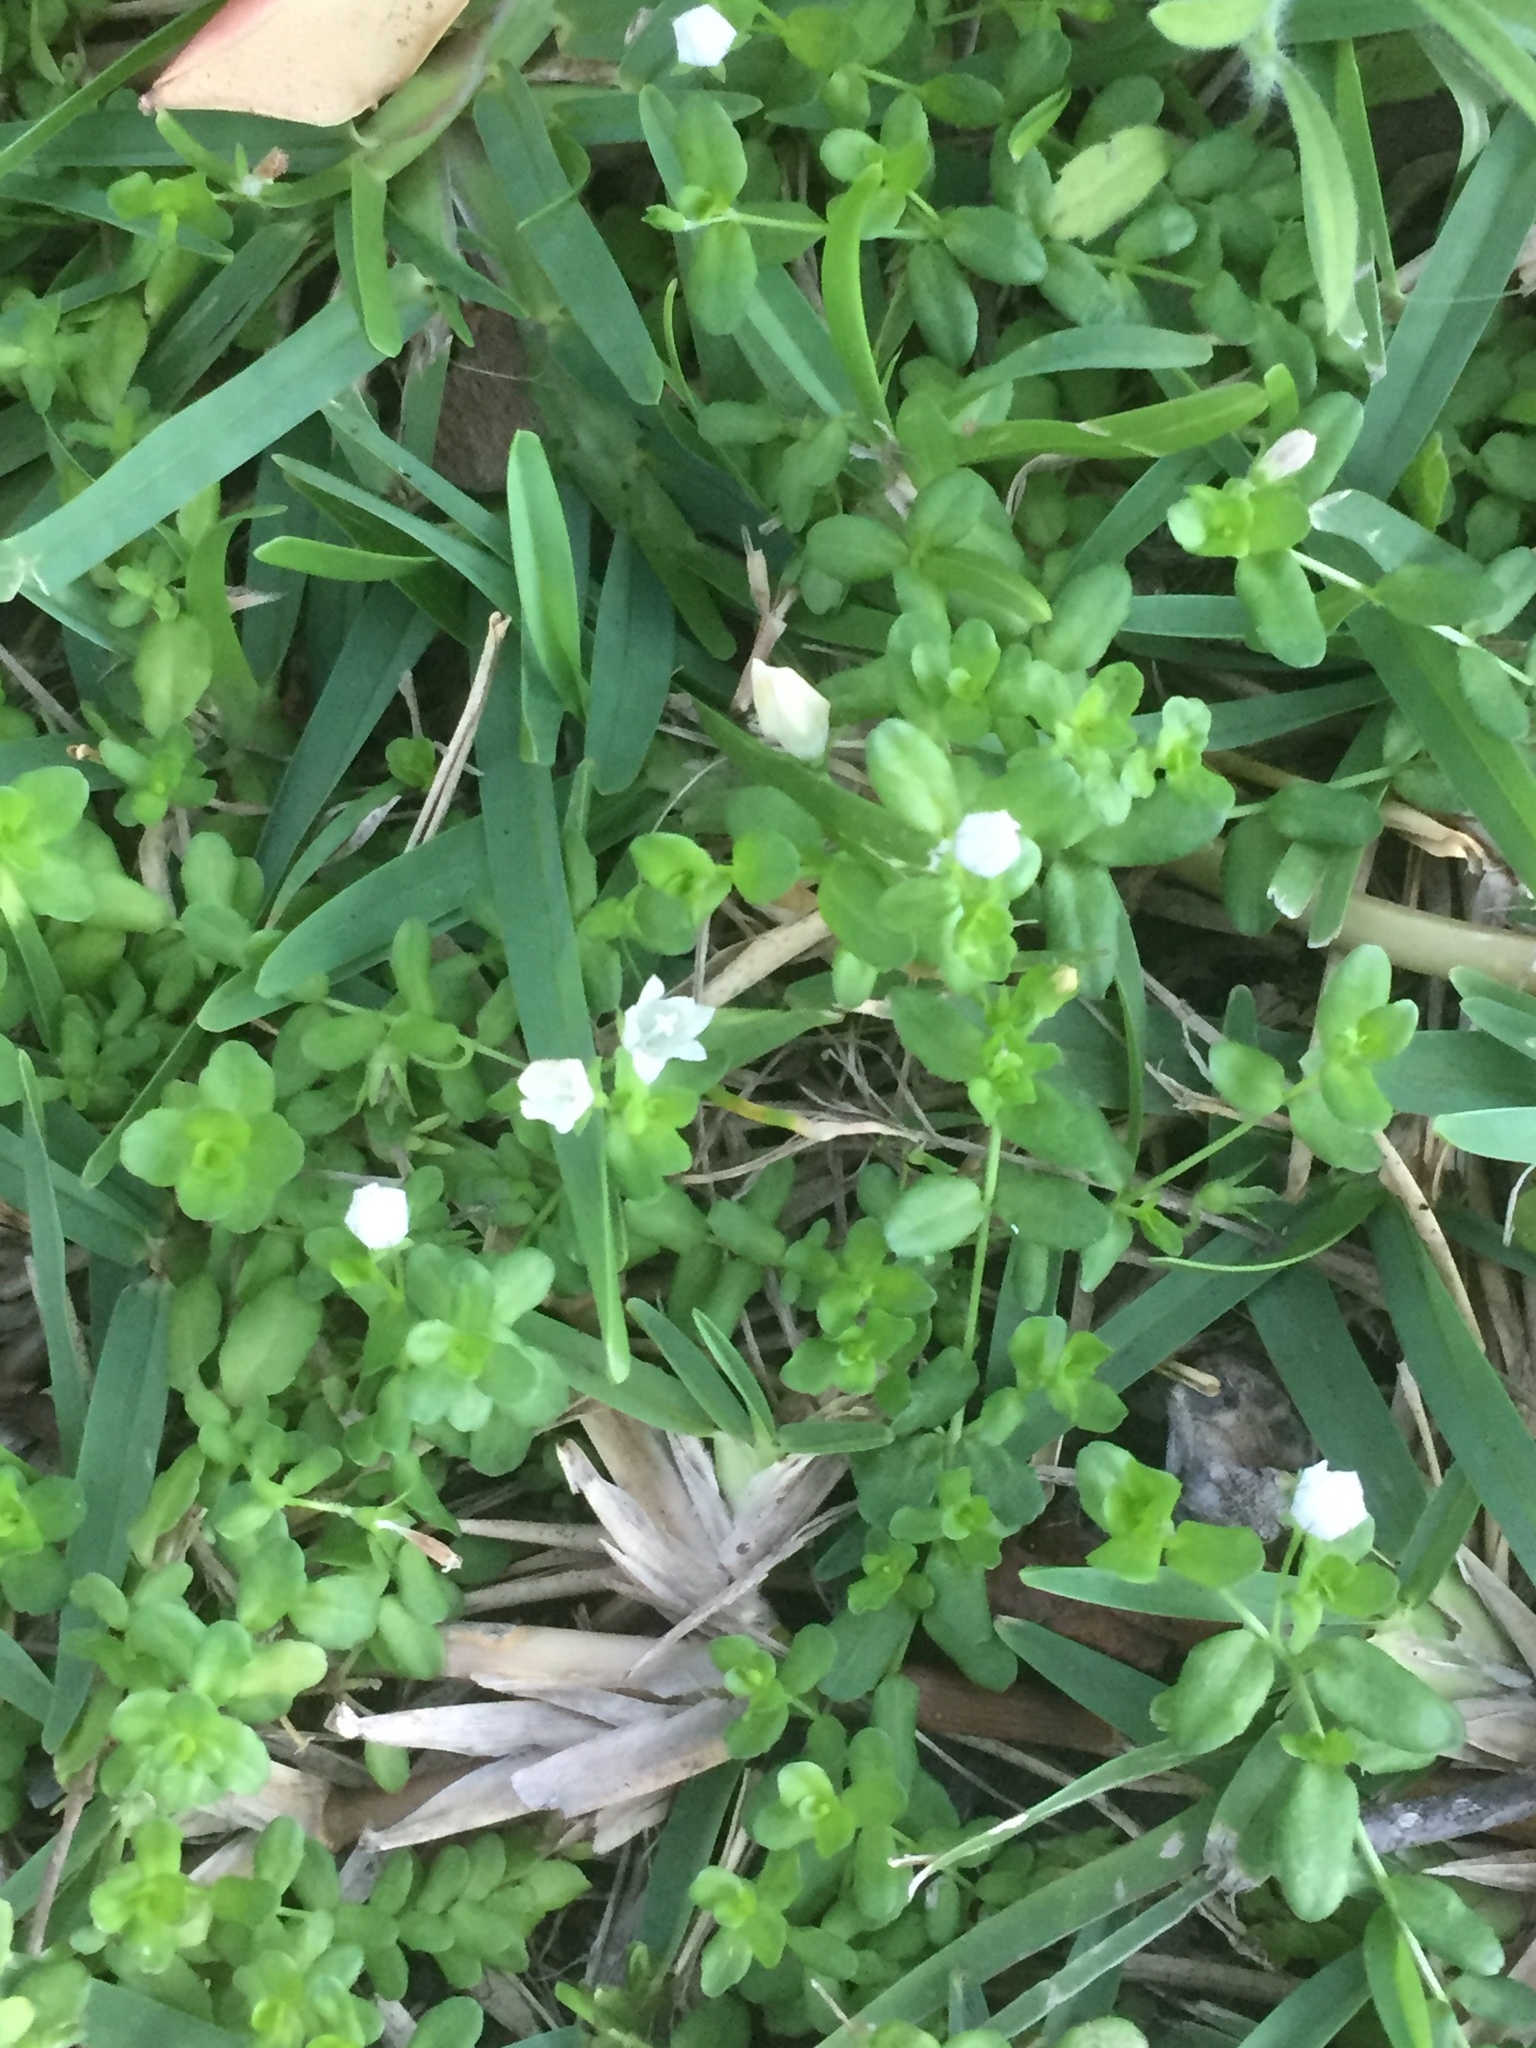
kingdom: Plantae
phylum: Tracheophyta
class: Magnoliopsida
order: Asterales
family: Campanulaceae
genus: Wahlenbergia
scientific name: Wahlenbergia procumbens
